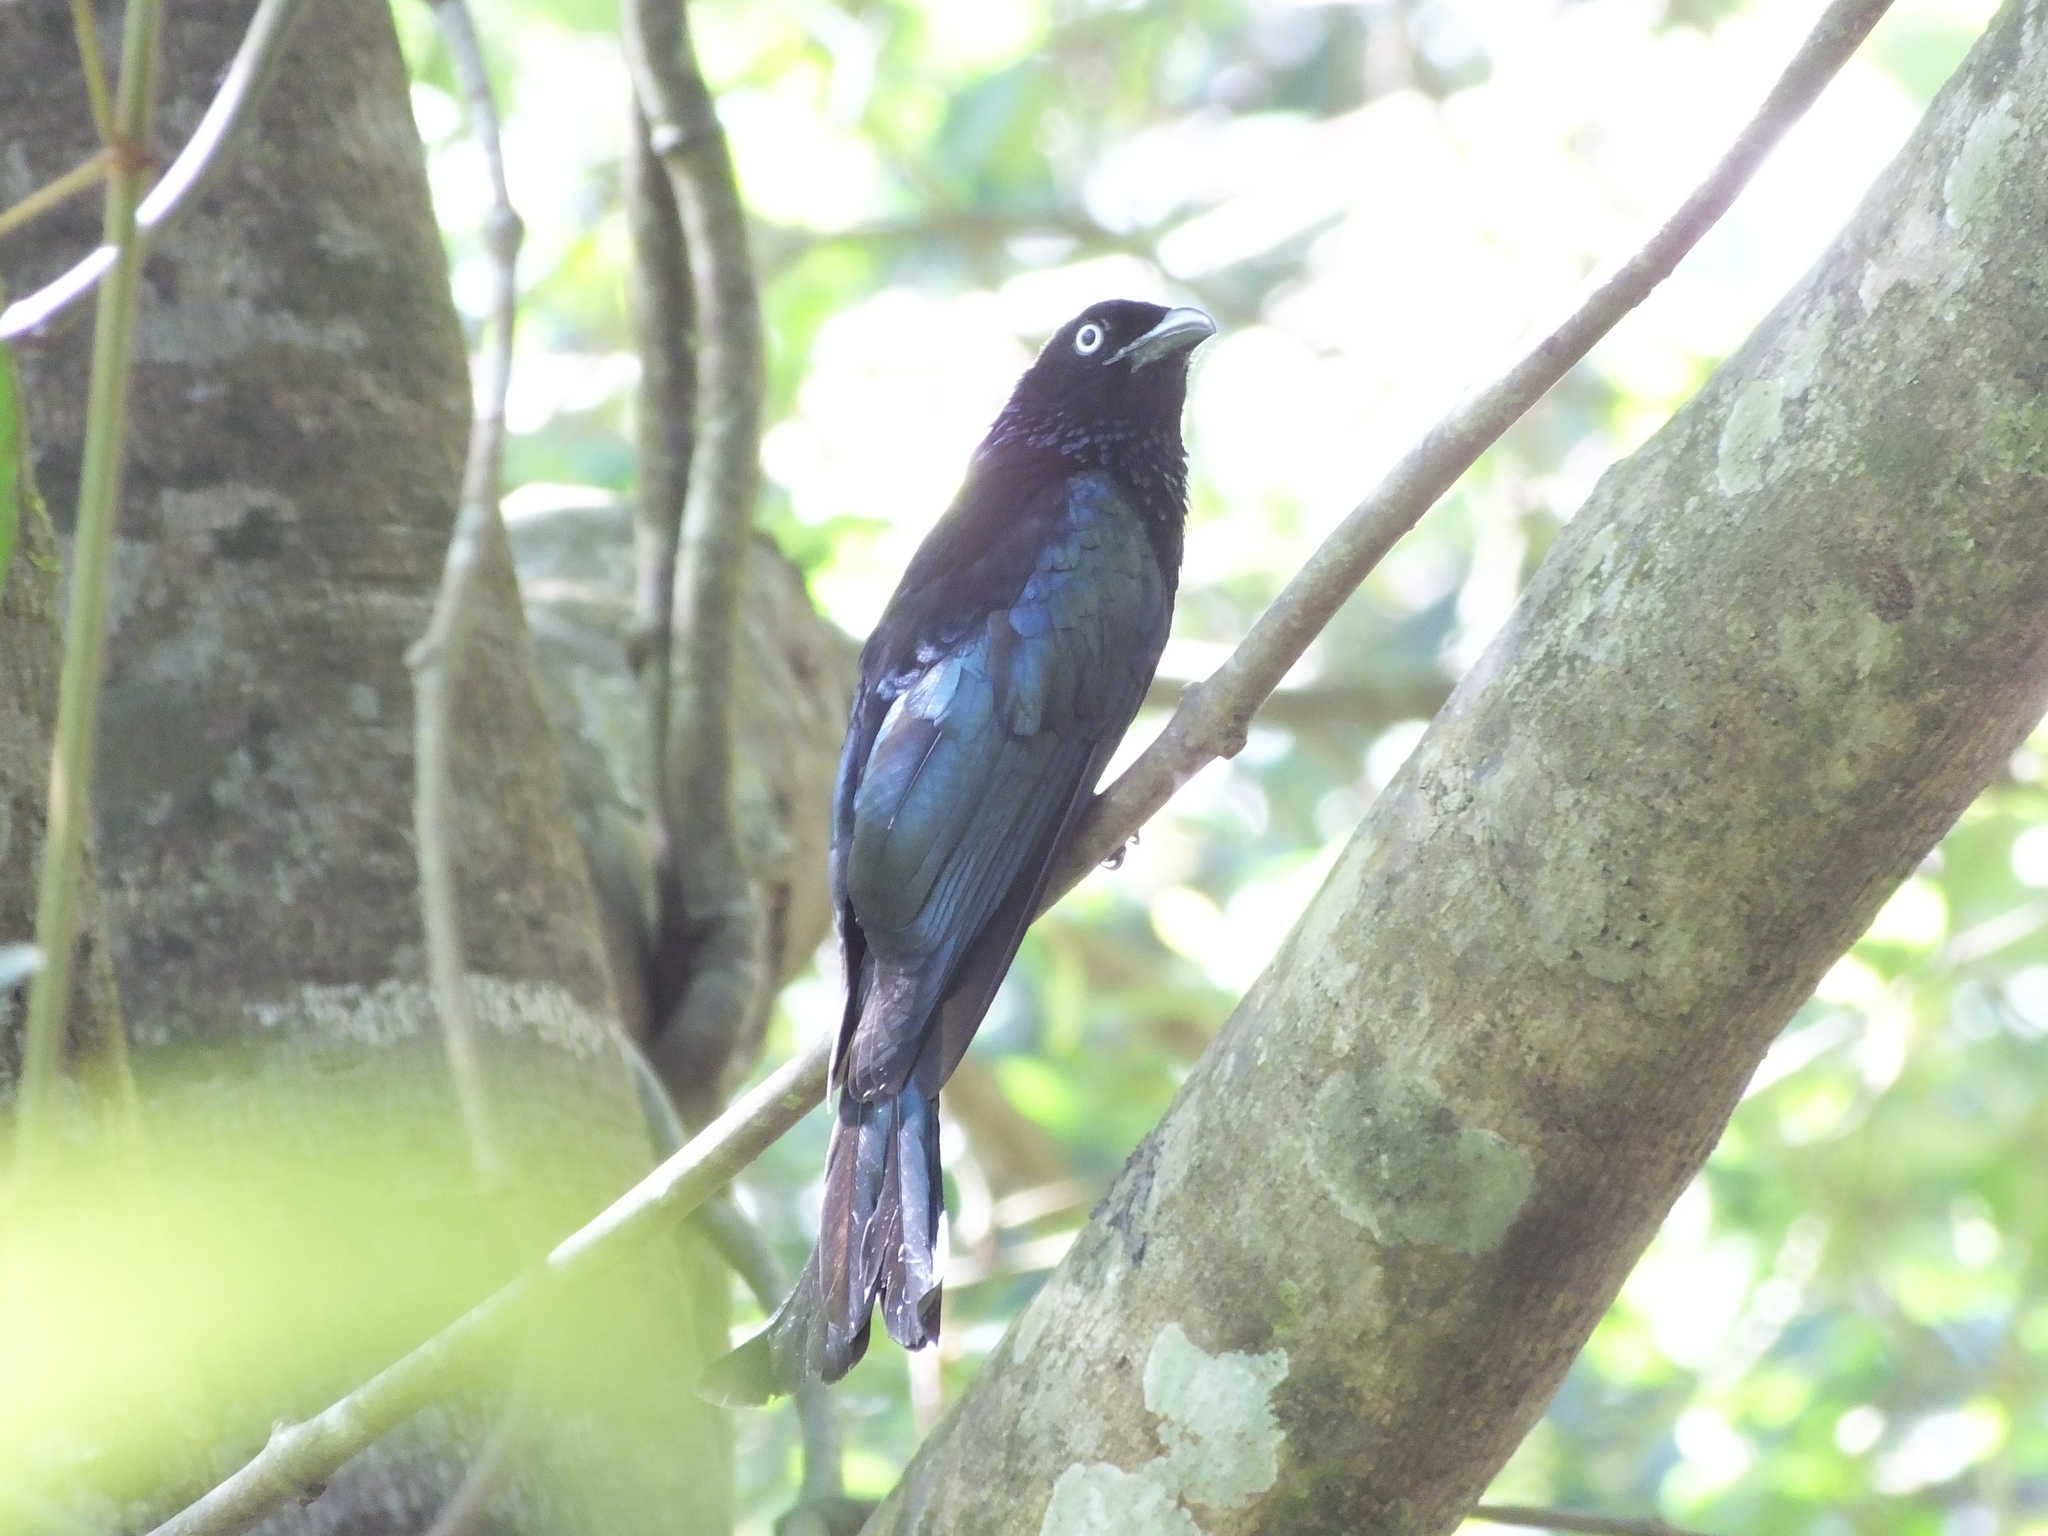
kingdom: Animalia
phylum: Chordata
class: Aves
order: Passeriformes
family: Dicruridae
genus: Dicrurus
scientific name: Dicrurus hottentottus
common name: Hair-crested drongo
